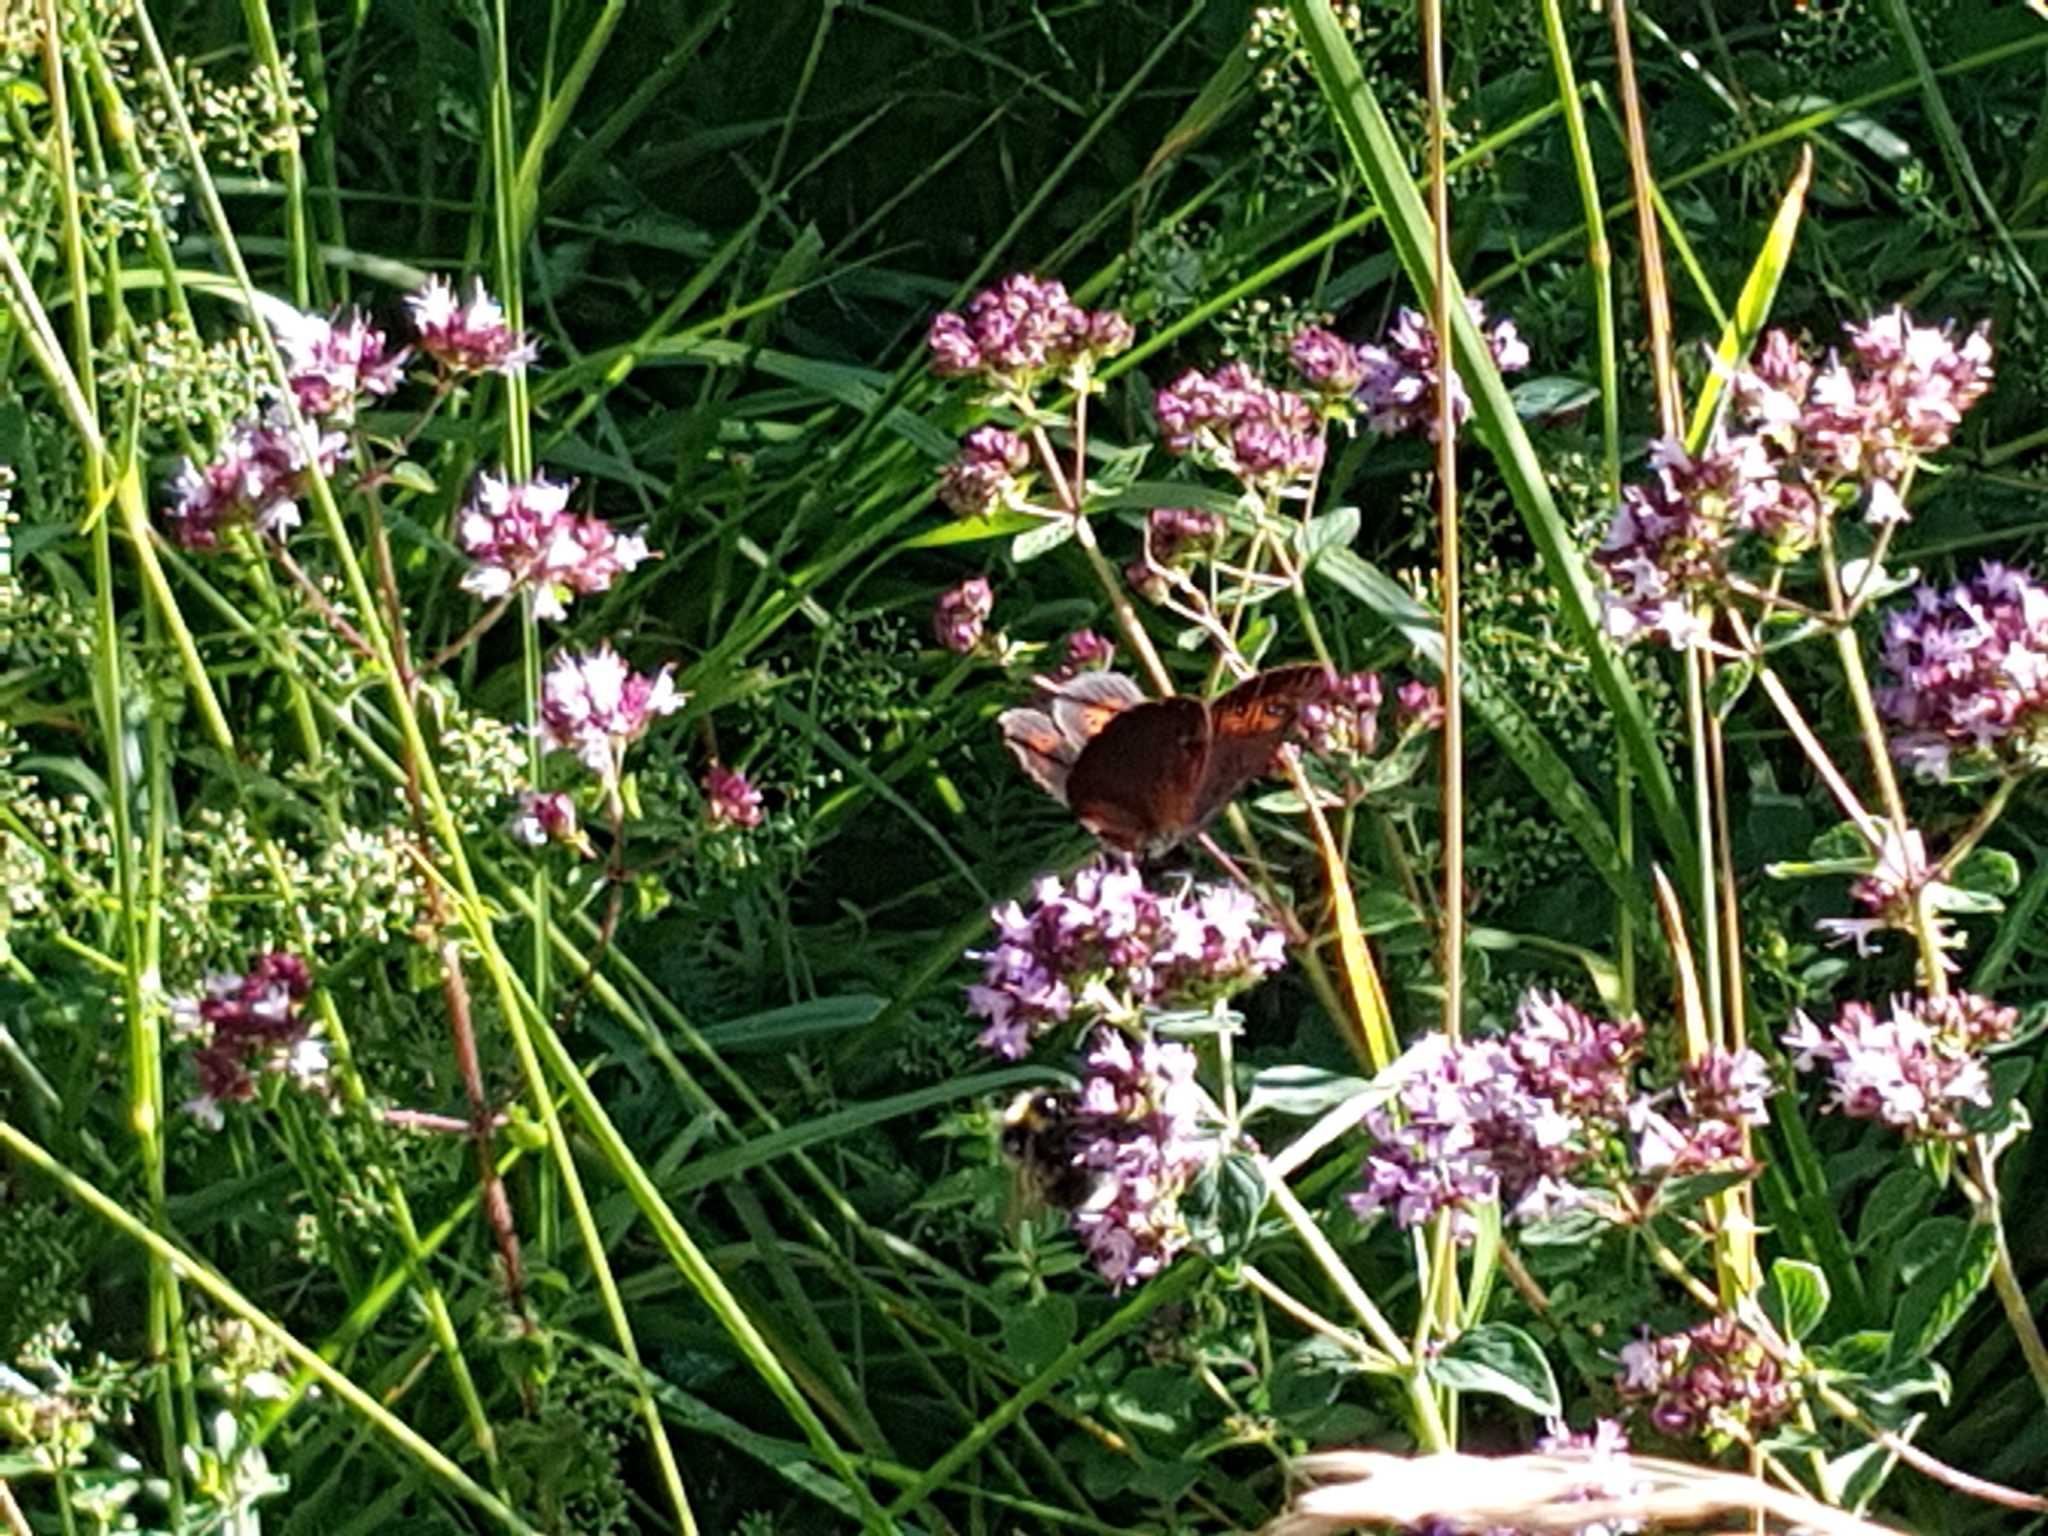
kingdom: Plantae
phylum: Tracheophyta
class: Magnoliopsida
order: Lamiales
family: Lamiaceae
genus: Origanum
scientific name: Origanum vulgare
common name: Wild marjoram
